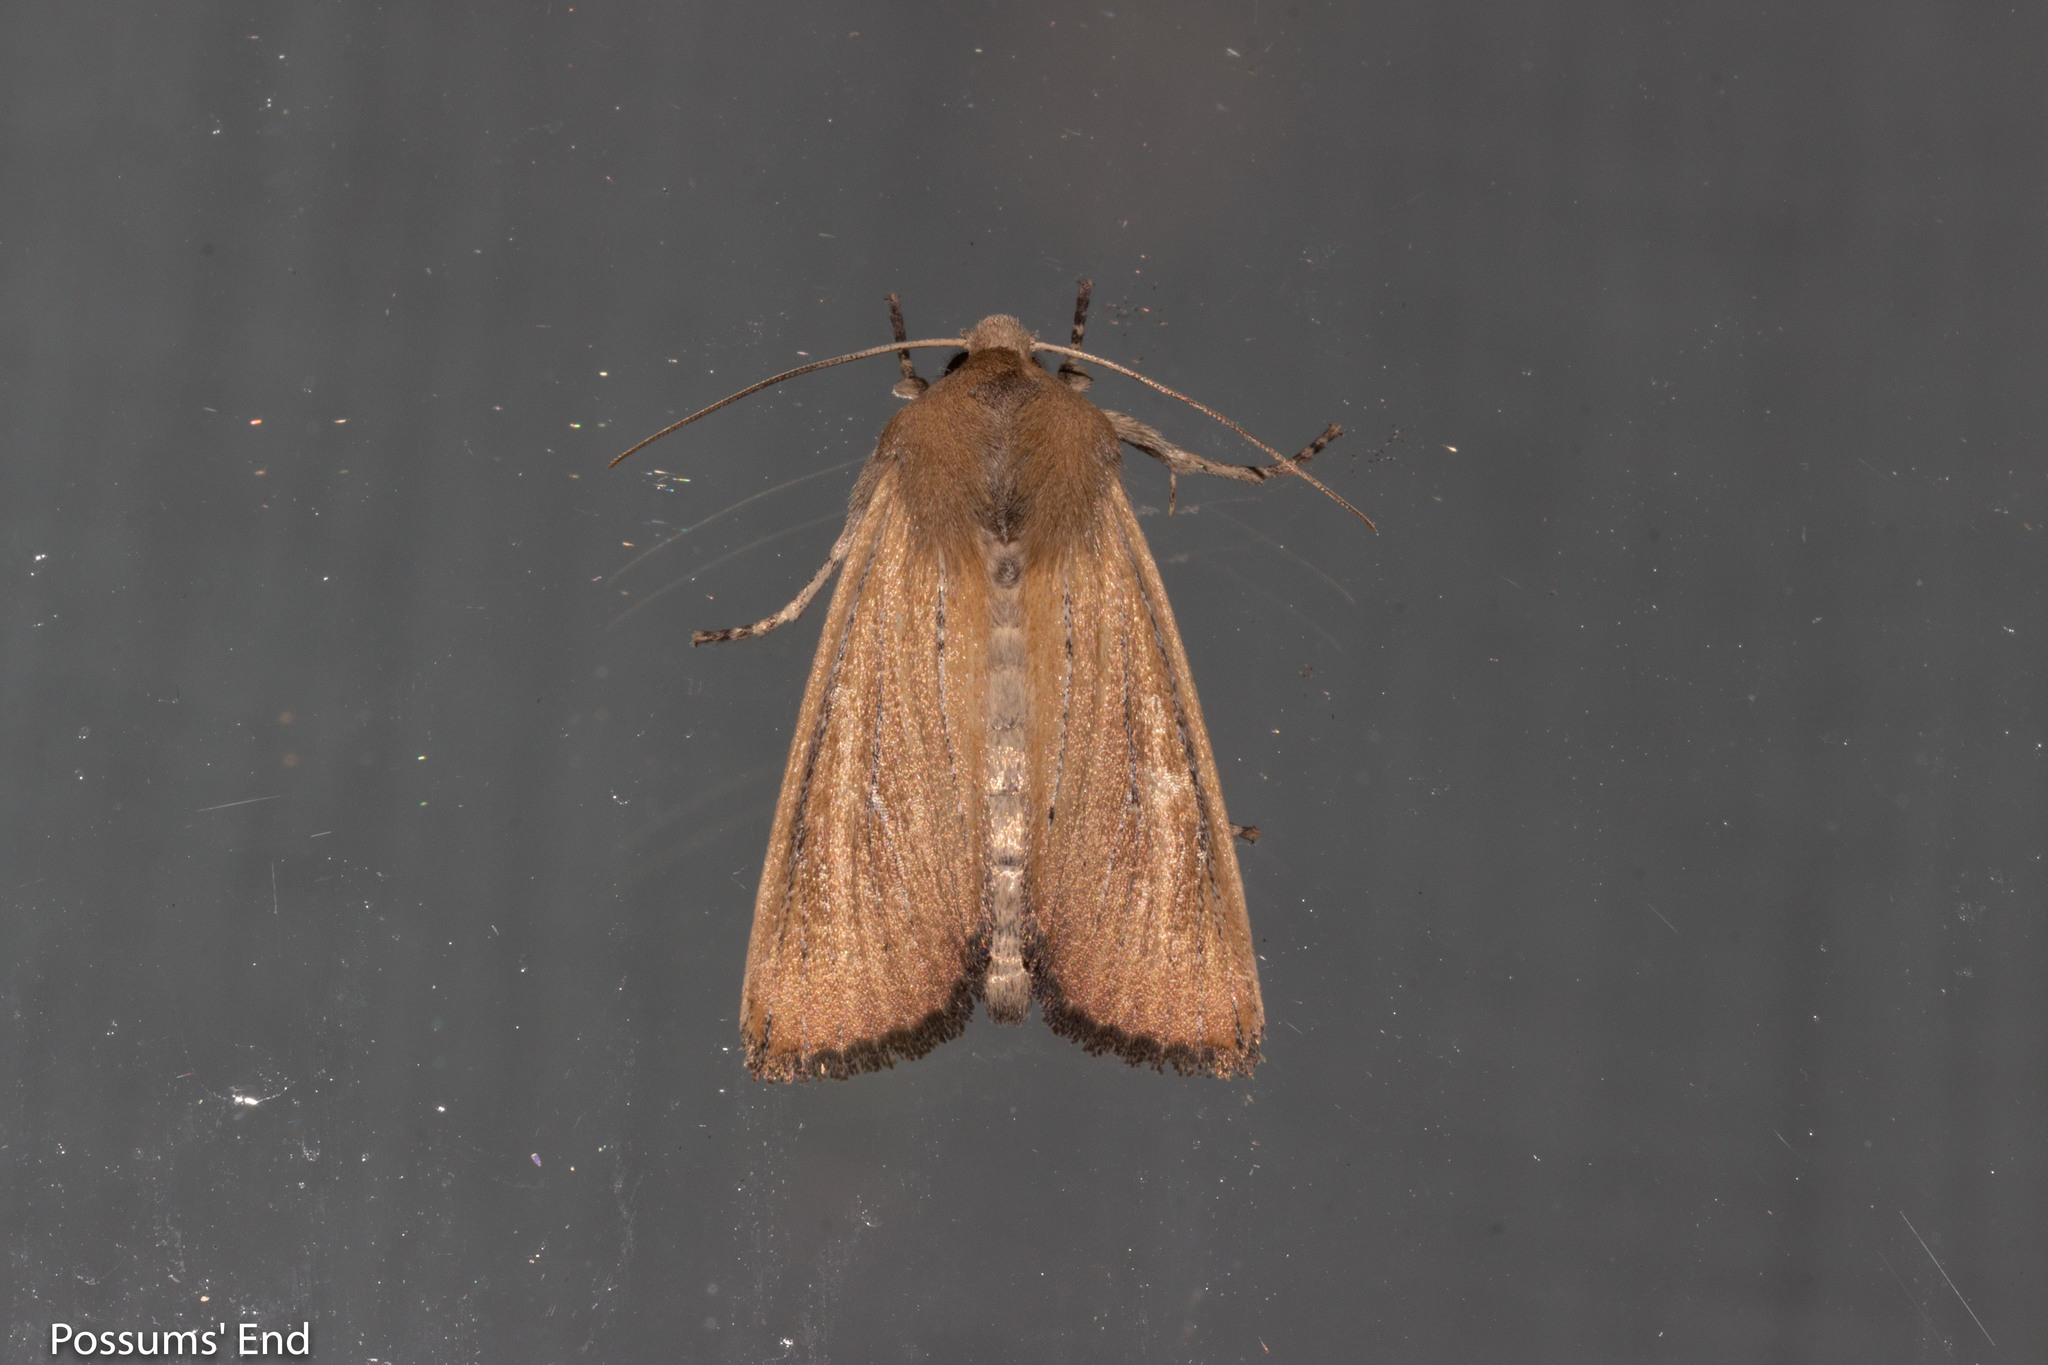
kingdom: Animalia
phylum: Arthropoda
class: Insecta
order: Lepidoptera
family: Noctuidae
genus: Ichneutica
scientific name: Ichneutica blenheimensis
